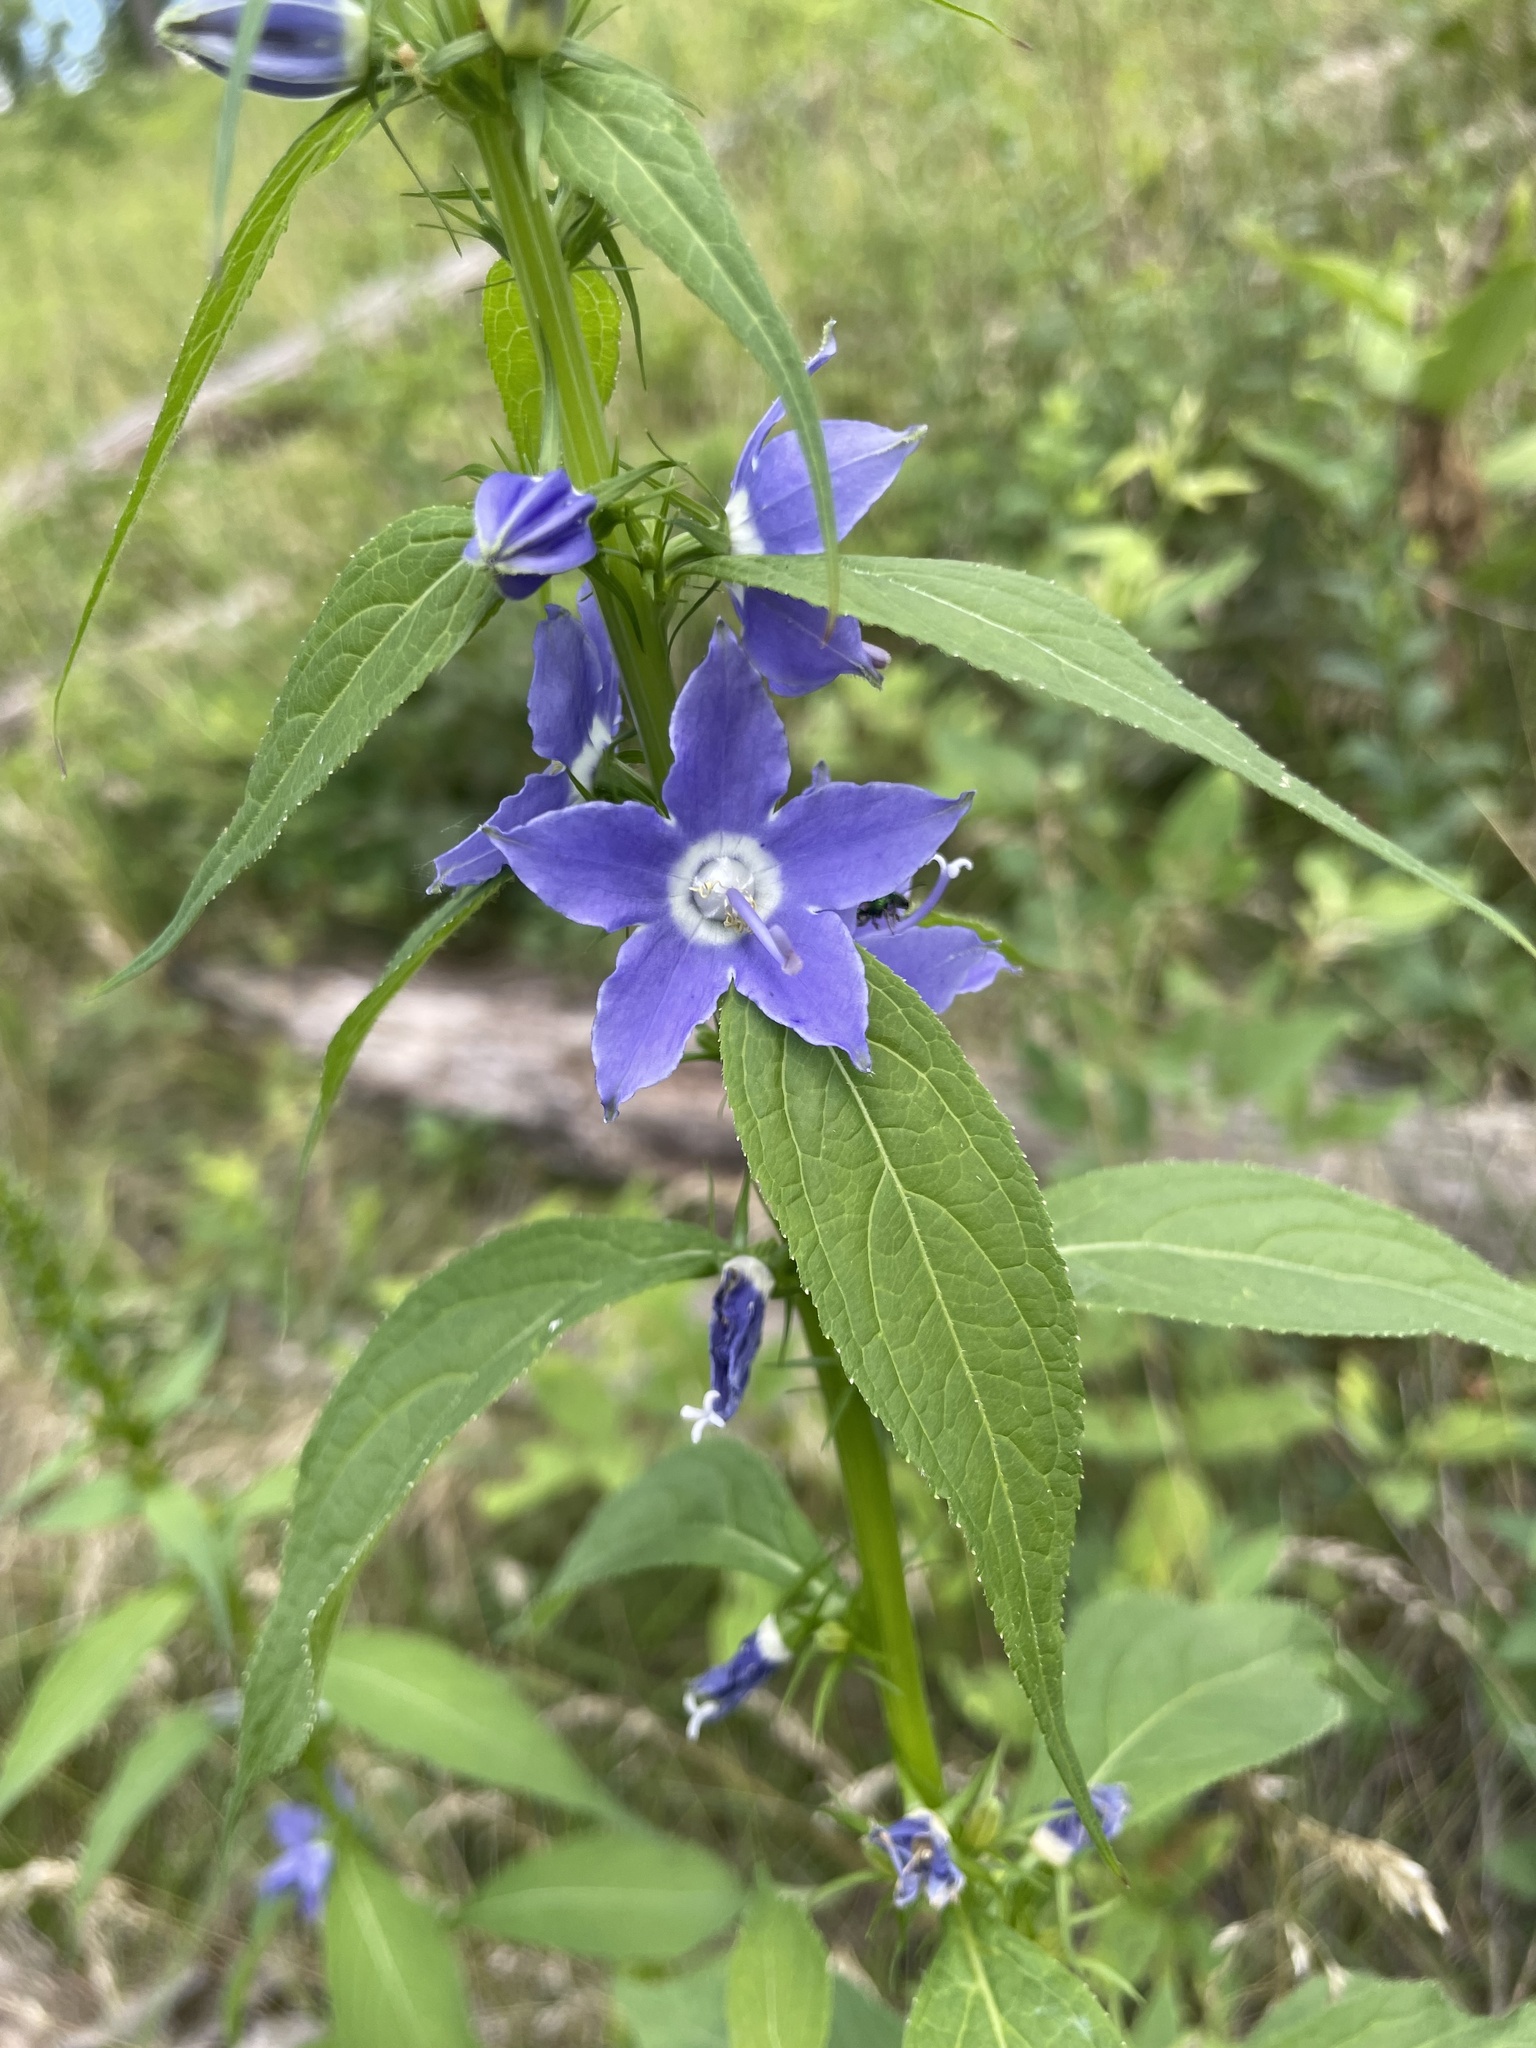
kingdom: Plantae
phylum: Tracheophyta
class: Magnoliopsida
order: Asterales
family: Campanulaceae
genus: Campanulastrum
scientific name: Campanulastrum americanum
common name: American bellflower
